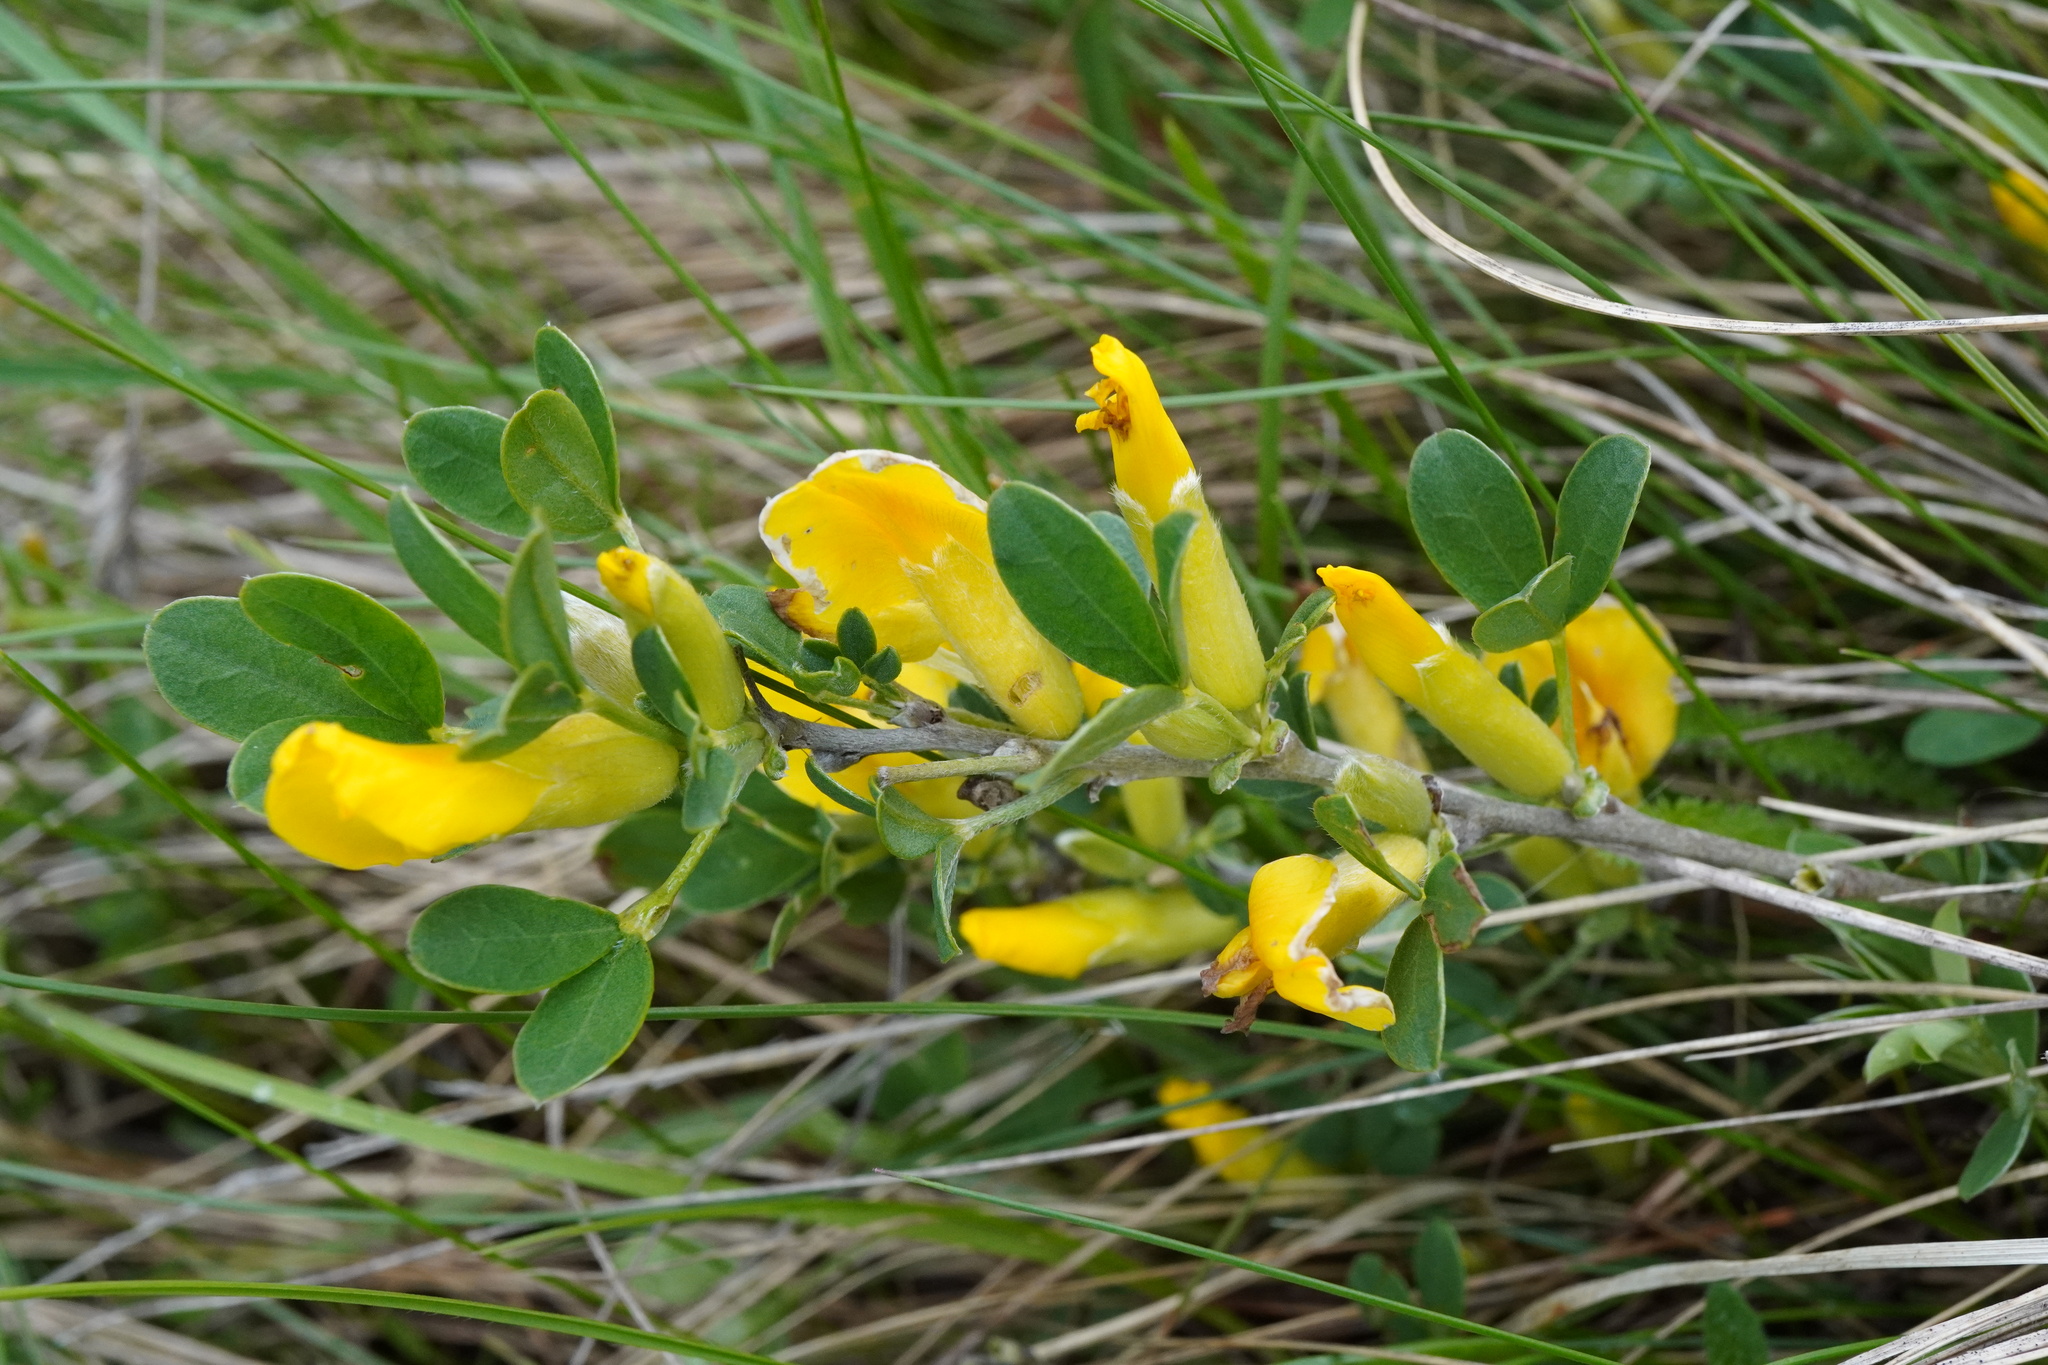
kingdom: Plantae
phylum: Tracheophyta
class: Magnoliopsida
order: Fabales
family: Fabaceae
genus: Chamaecytisus
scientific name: Chamaecytisus ratisbonensis
